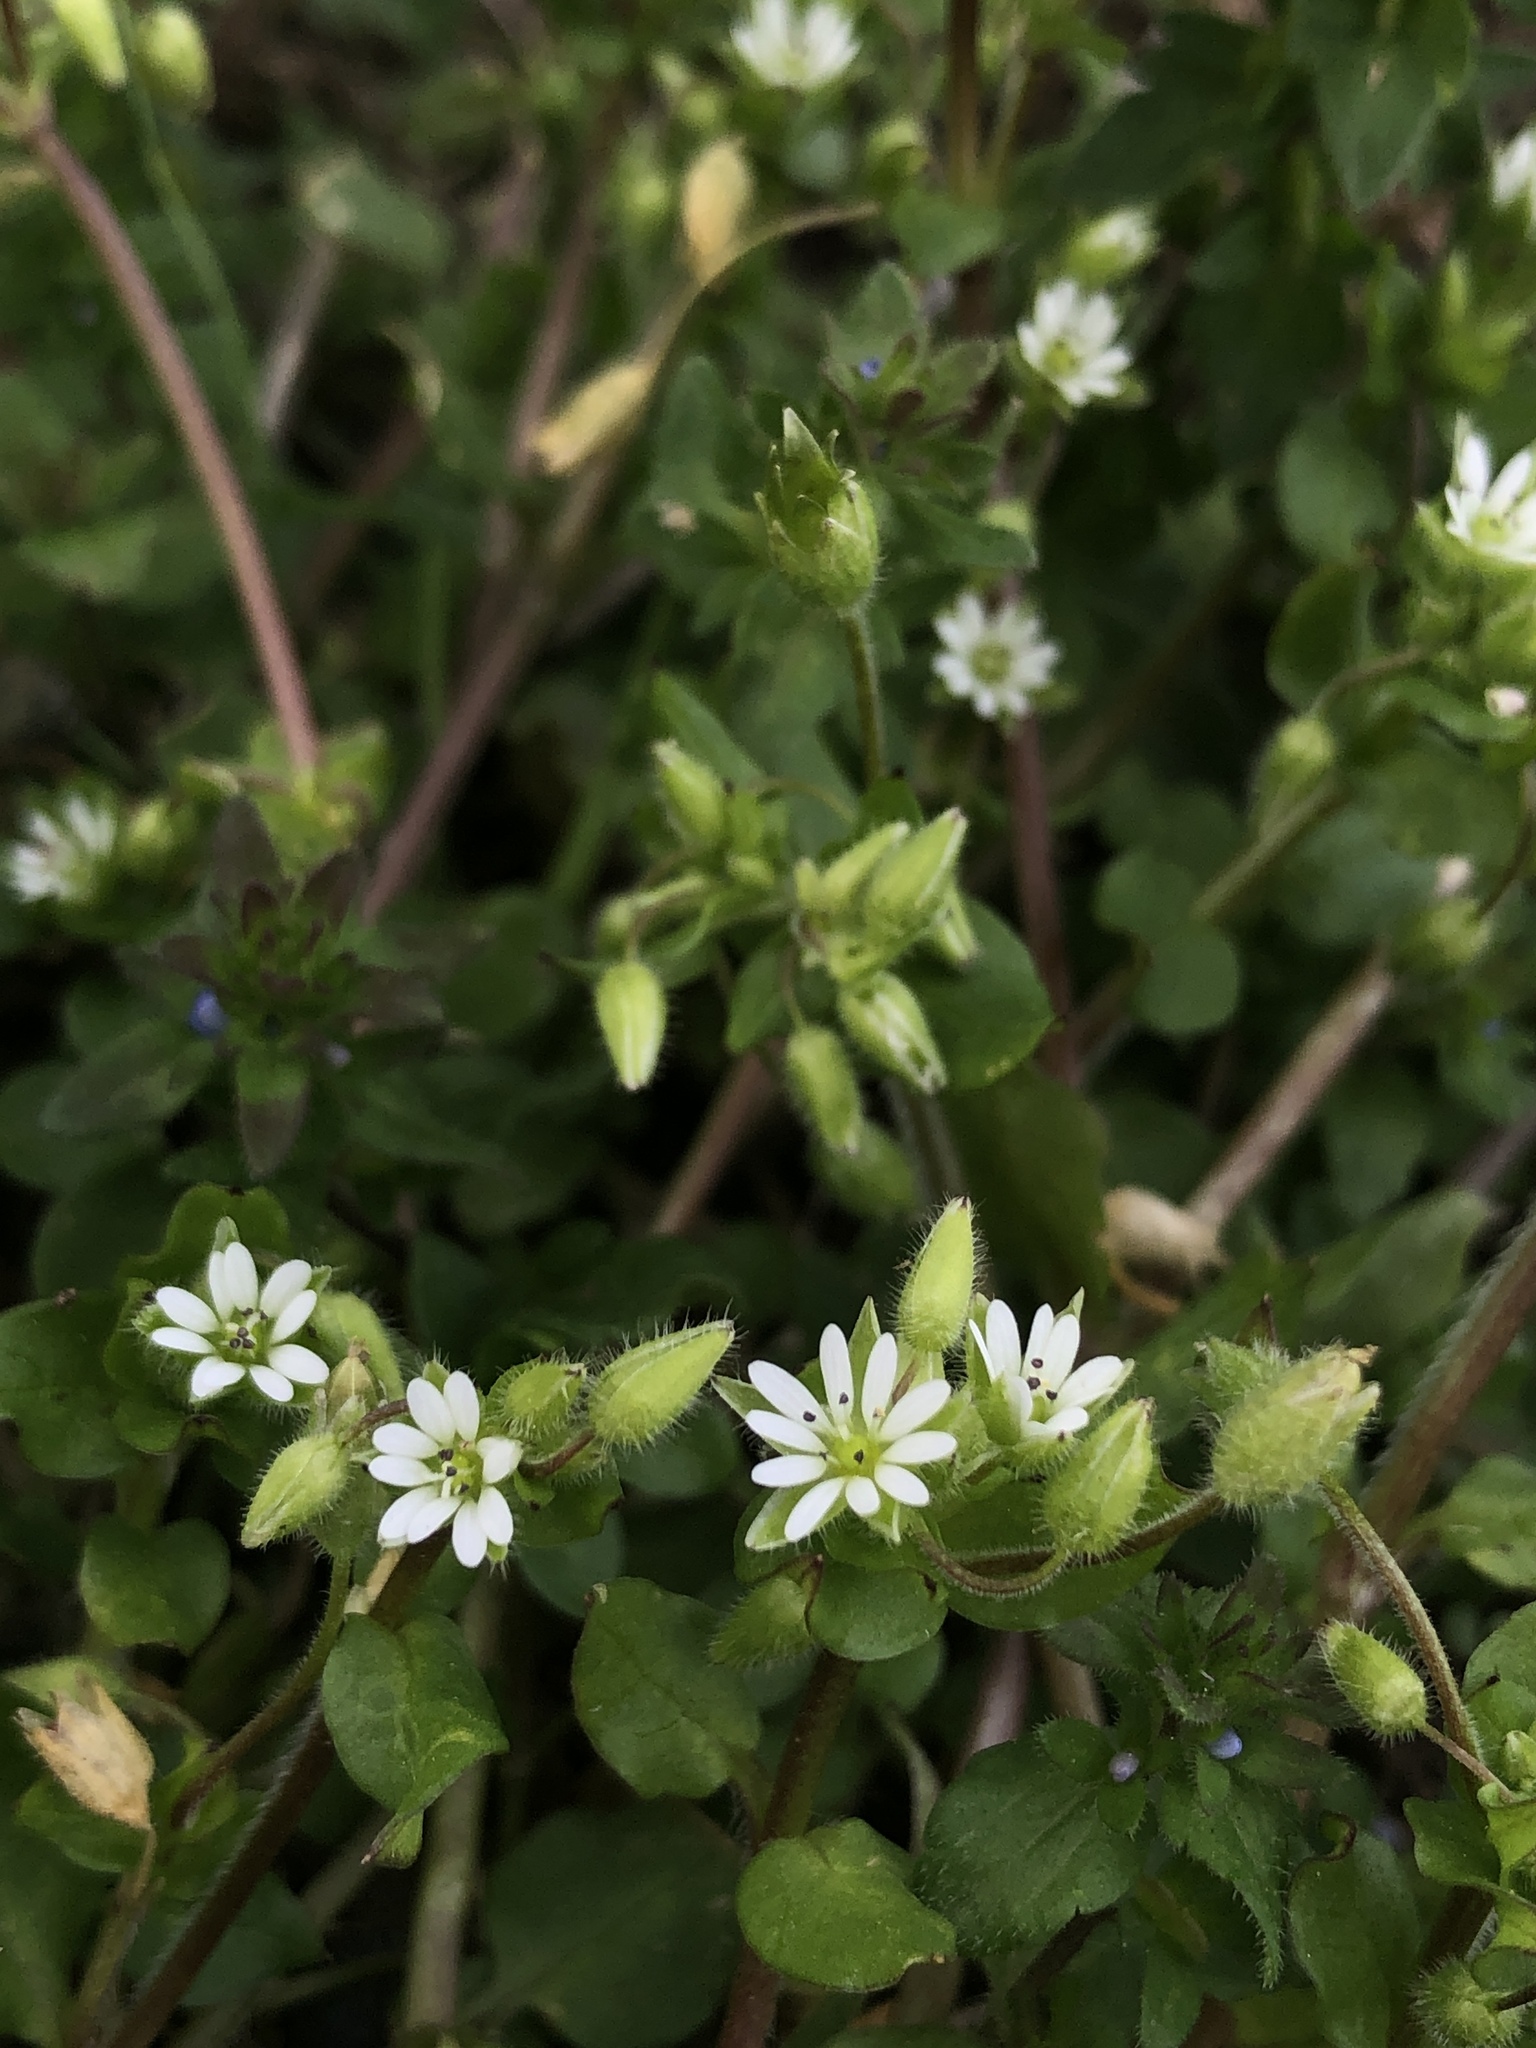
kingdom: Plantae
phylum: Tracheophyta
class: Magnoliopsida
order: Caryophyllales
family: Caryophyllaceae
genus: Stellaria
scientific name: Stellaria media
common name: Common chickweed
